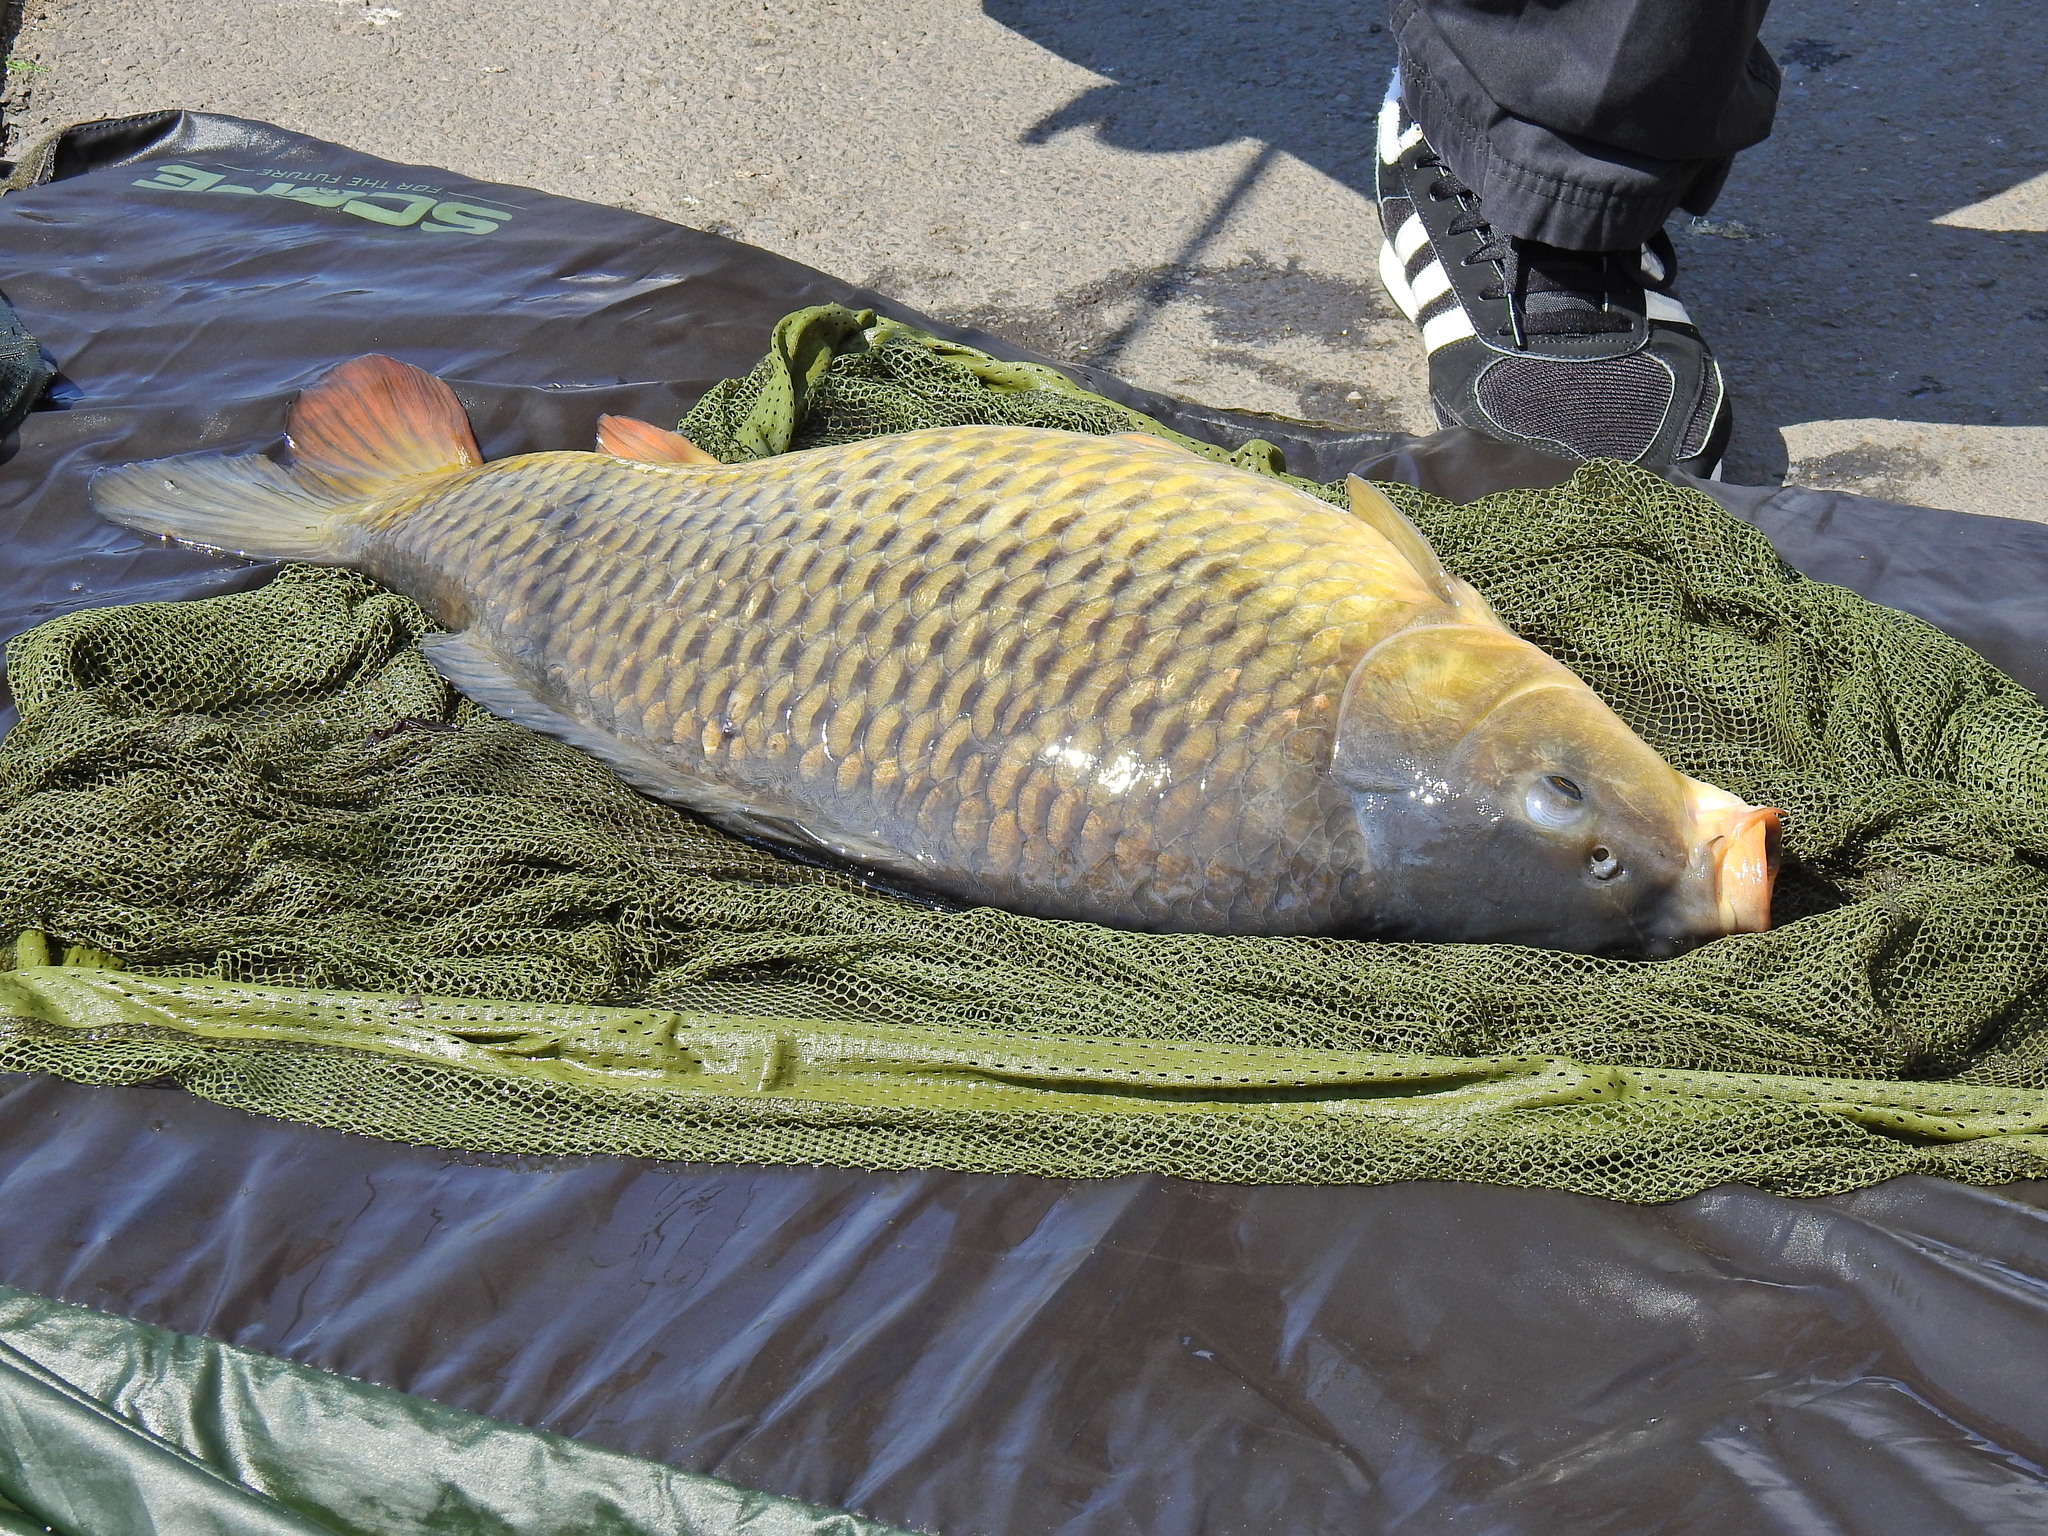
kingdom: Animalia
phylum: Chordata
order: Cypriniformes
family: Cyprinidae
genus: Cyprinus
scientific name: Cyprinus carpio
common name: Common carp
